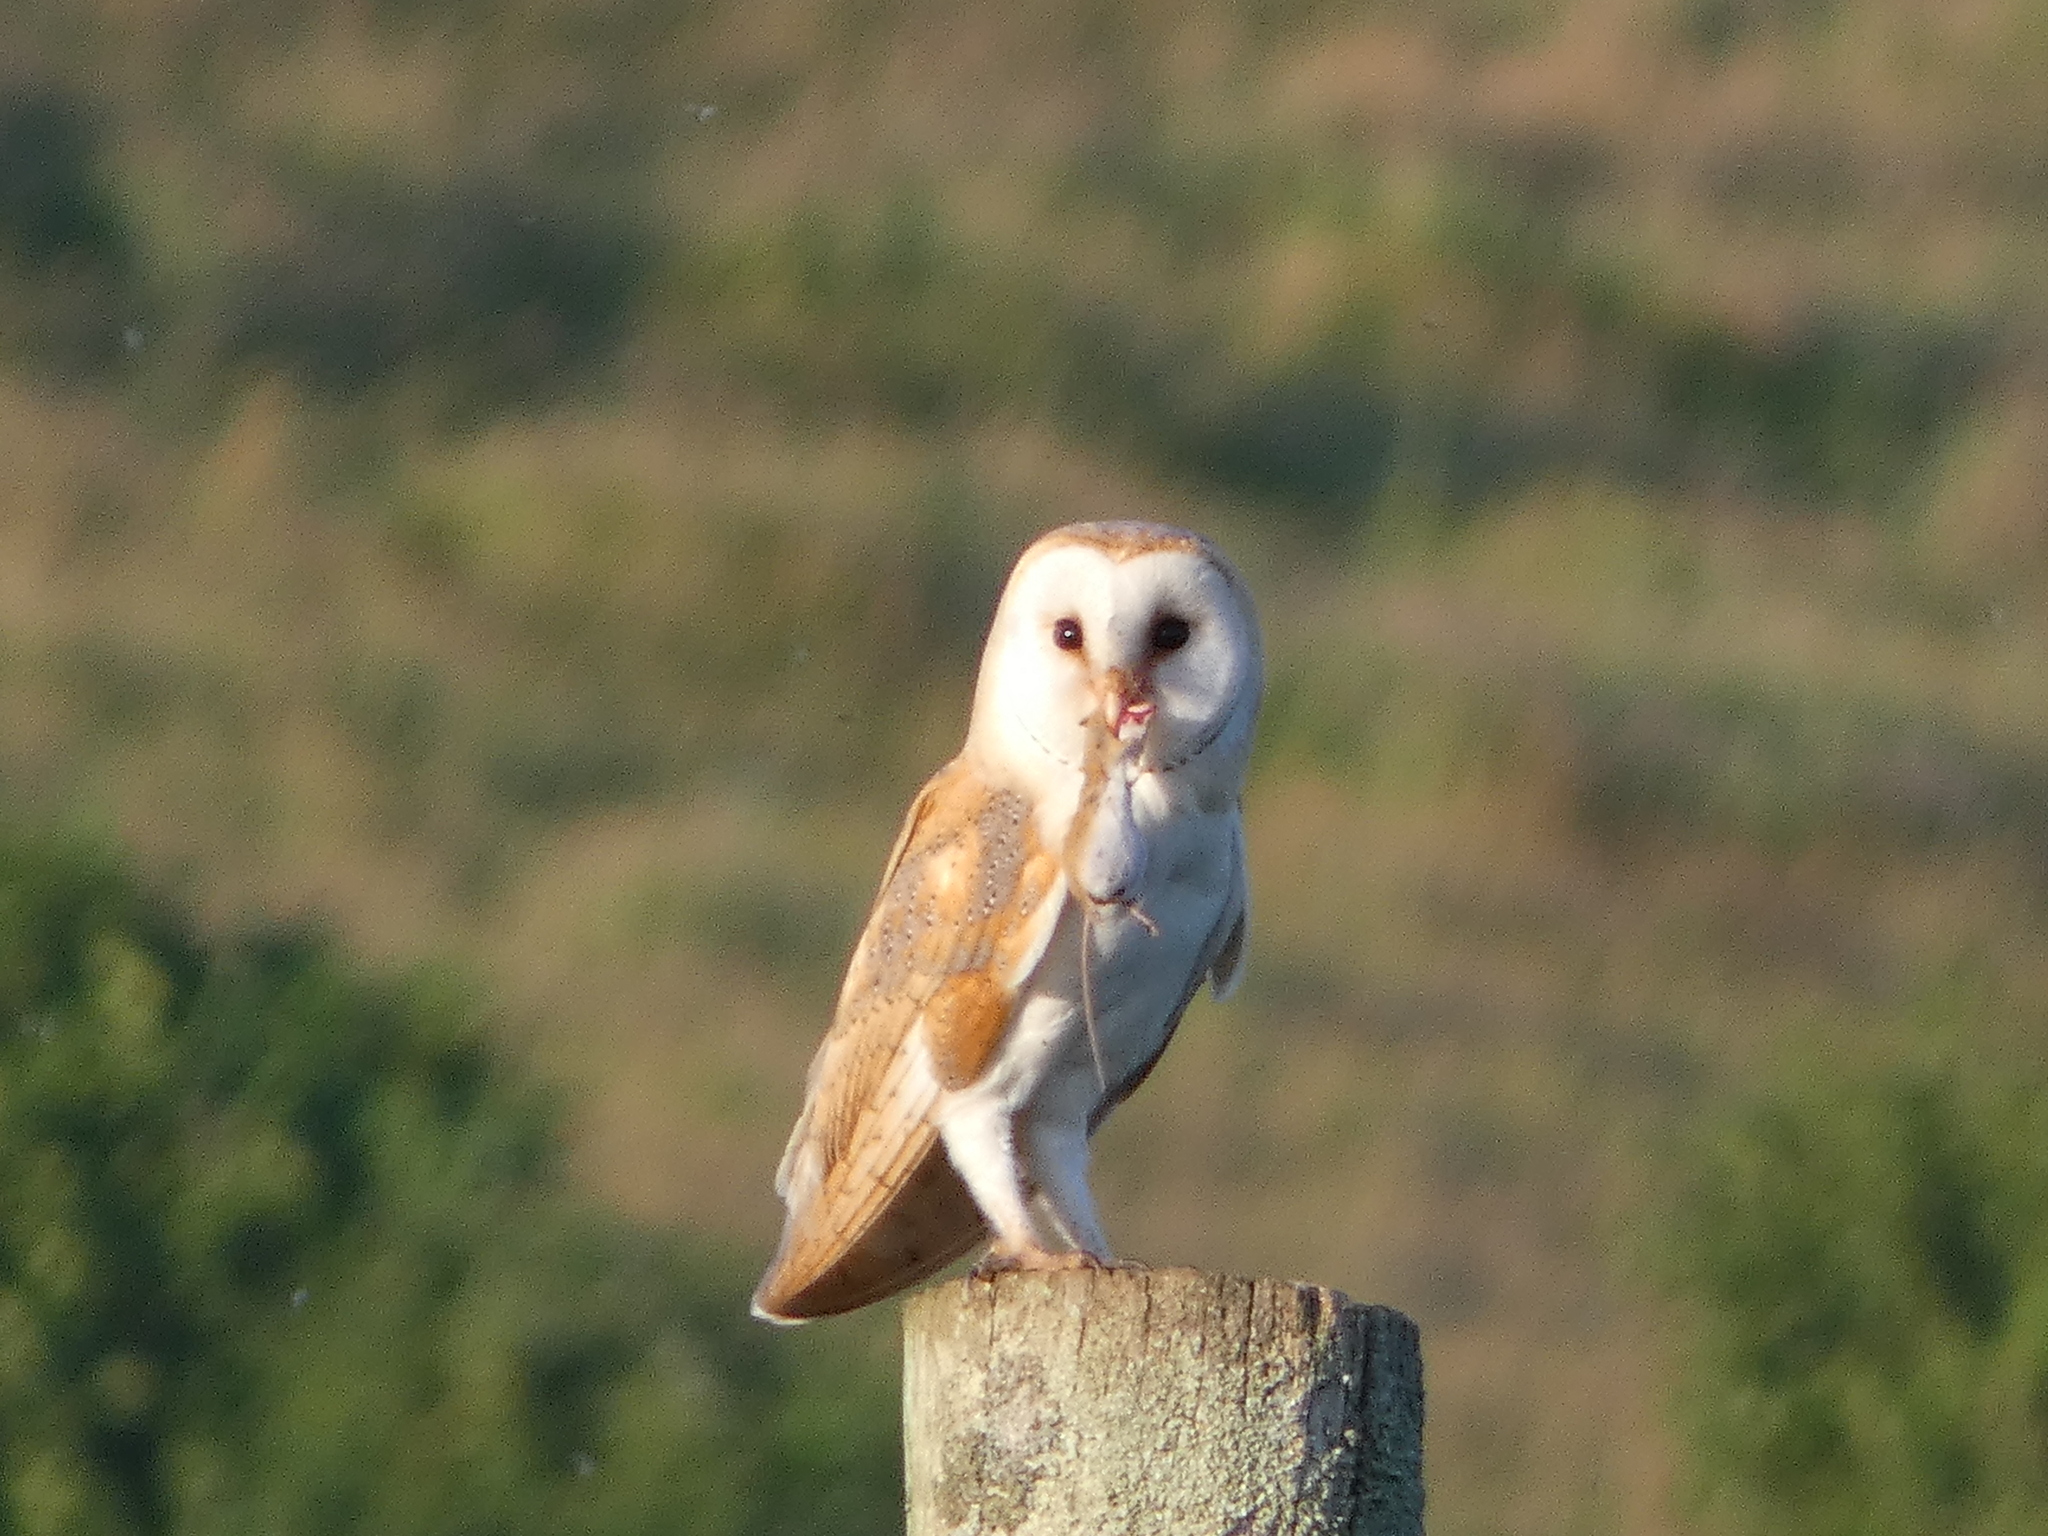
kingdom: Animalia
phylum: Chordata
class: Aves
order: Strigiformes
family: Tytonidae
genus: Tyto
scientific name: Tyto alba
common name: Barn owl
